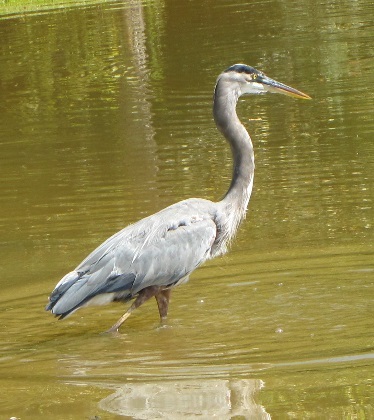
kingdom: Animalia
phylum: Chordata
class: Aves
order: Pelecaniformes
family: Ardeidae
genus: Ardea
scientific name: Ardea herodias
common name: Great blue heron
